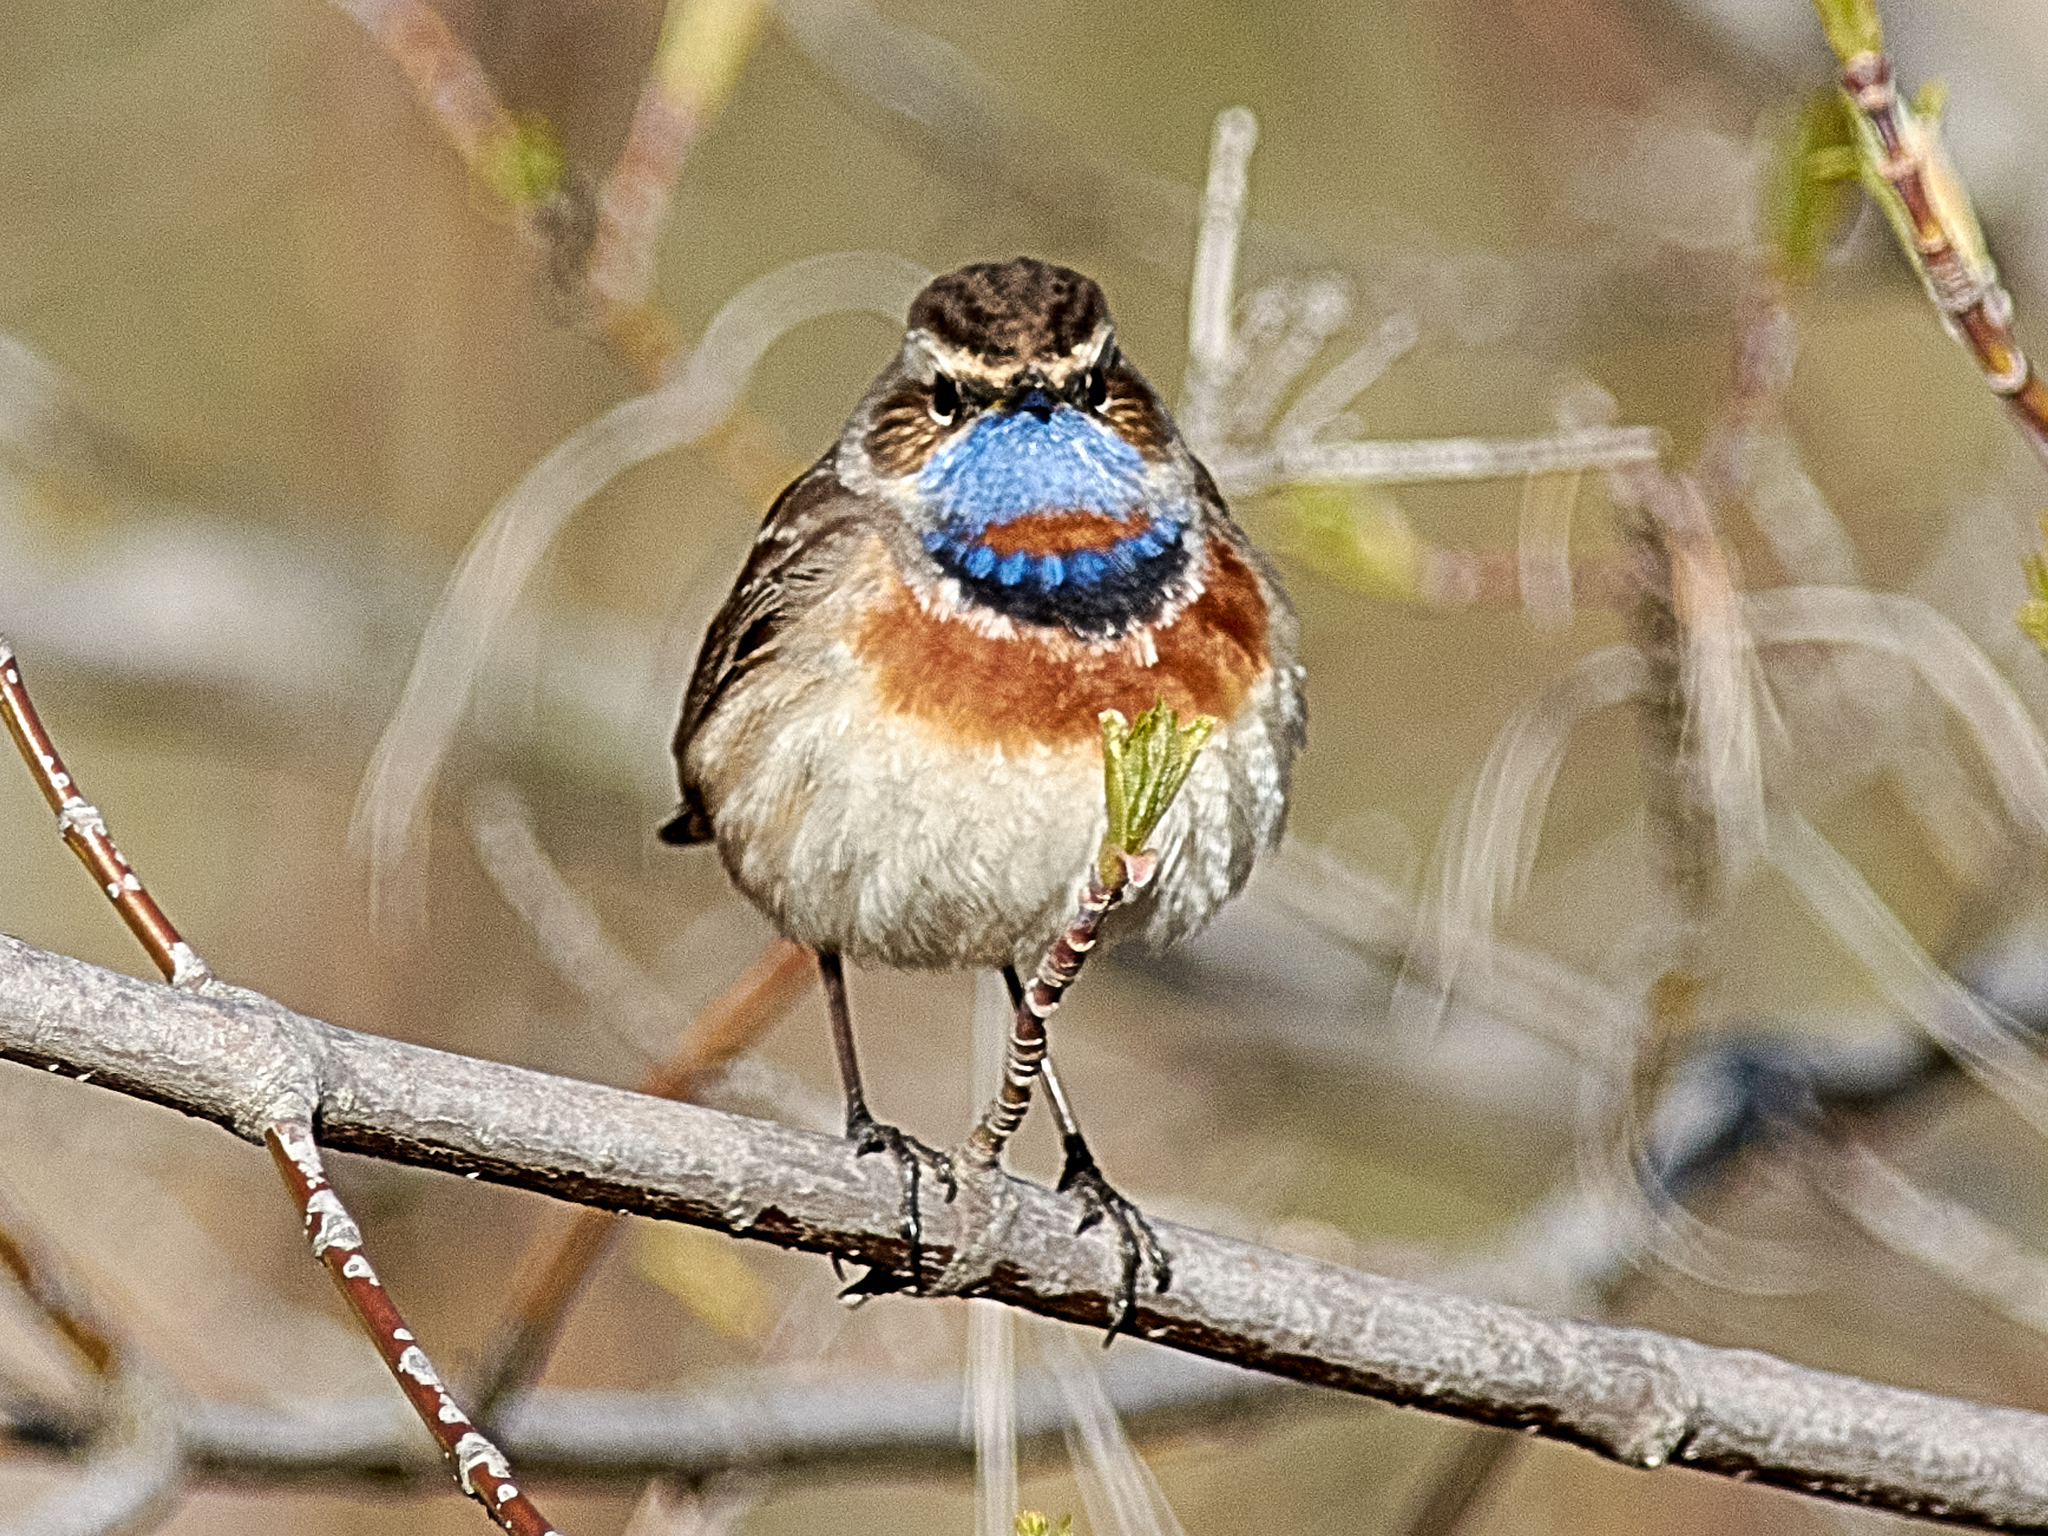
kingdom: Animalia
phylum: Chordata
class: Aves
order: Passeriformes
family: Muscicapidae
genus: Luscinia
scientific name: Luscinia svecica
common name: Bluethroat
